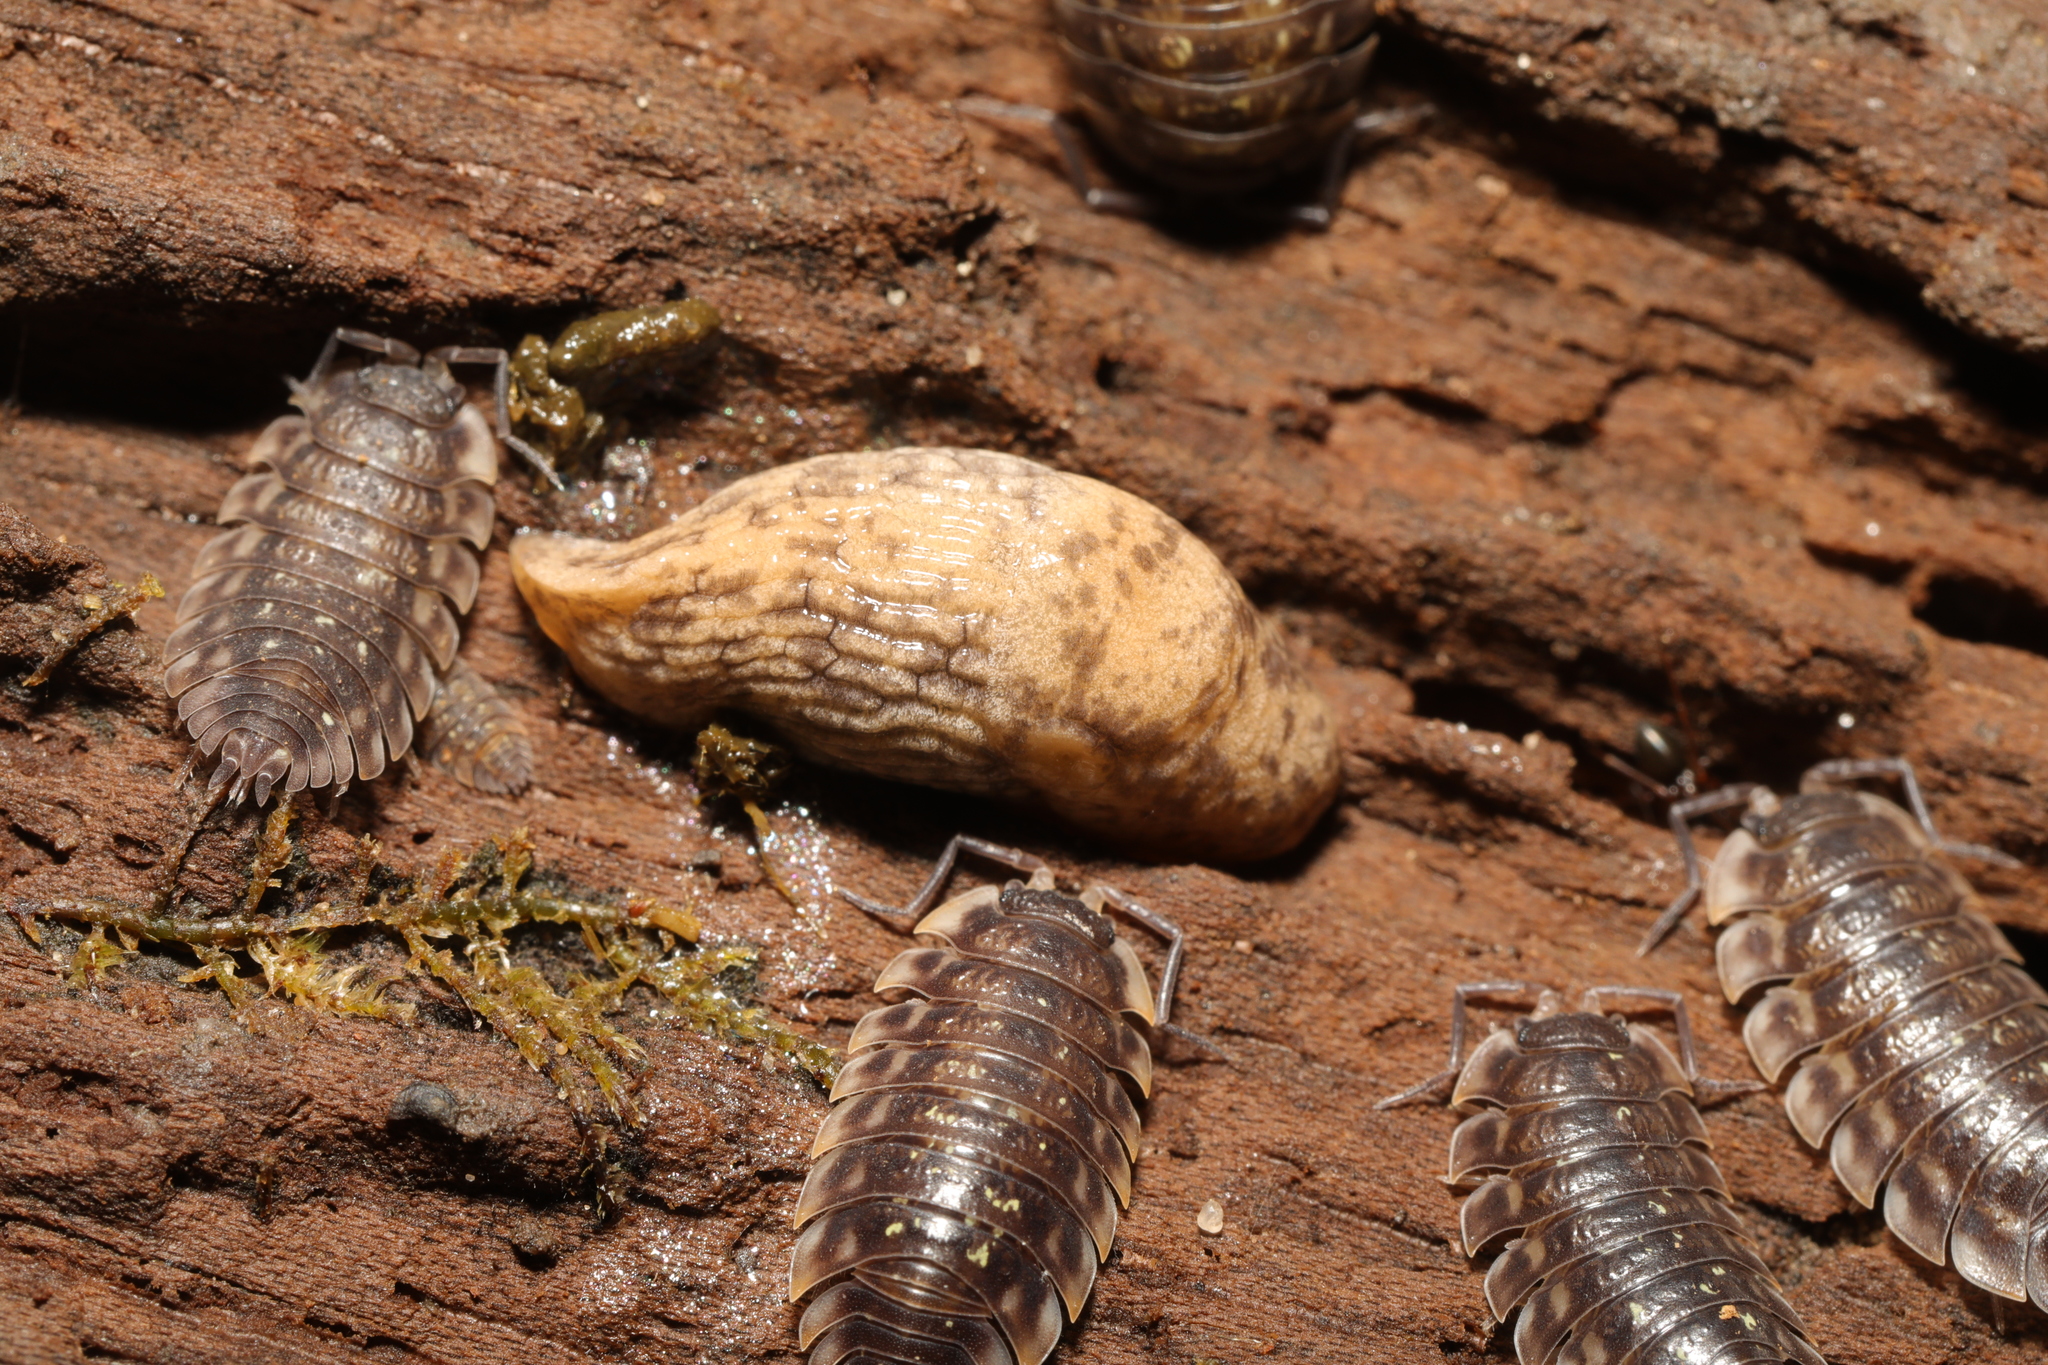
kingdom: Animalia
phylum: Mollusca
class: Gastropoda
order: Stylommatophora
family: Agriolimacidae
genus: Deroceras
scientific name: Deroceras reticulatum
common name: Gray field slug
